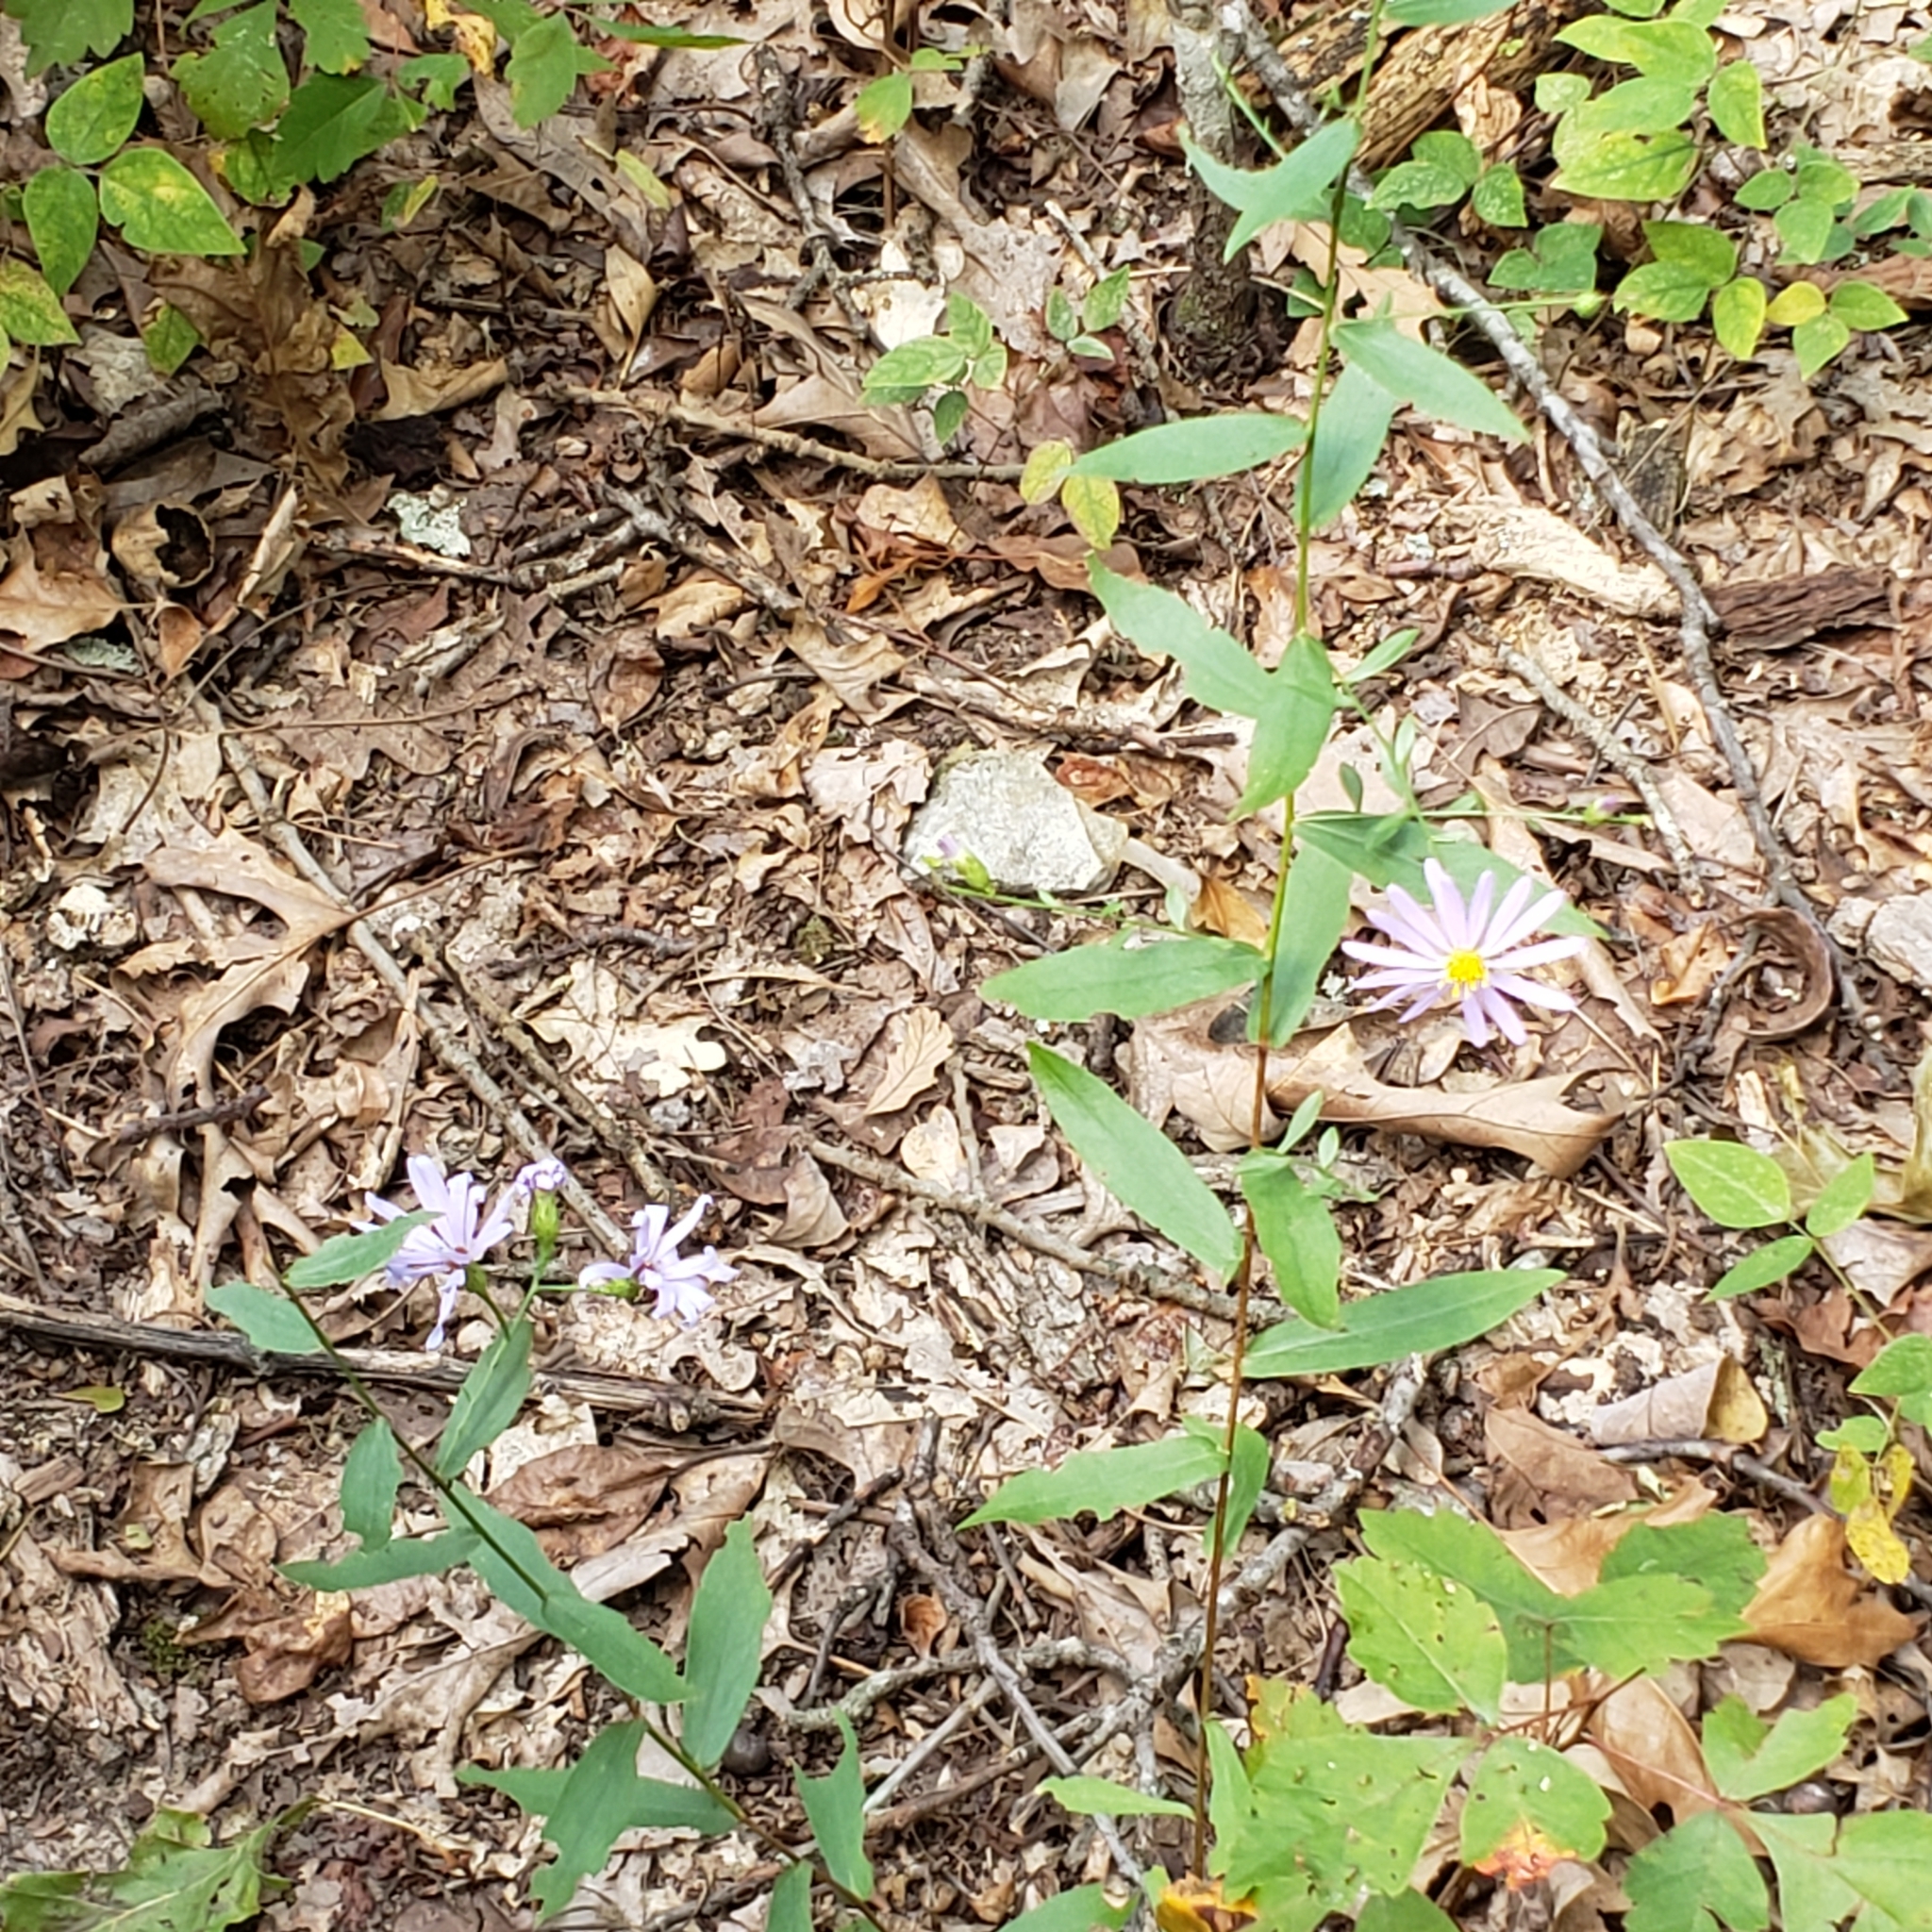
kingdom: Plantae
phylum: Tracheophyta
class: Magnoliopsida
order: Asterales
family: Asteraceae
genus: Symphyotrichum
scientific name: Symphyotrichum turbinellum
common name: Prairie aster
